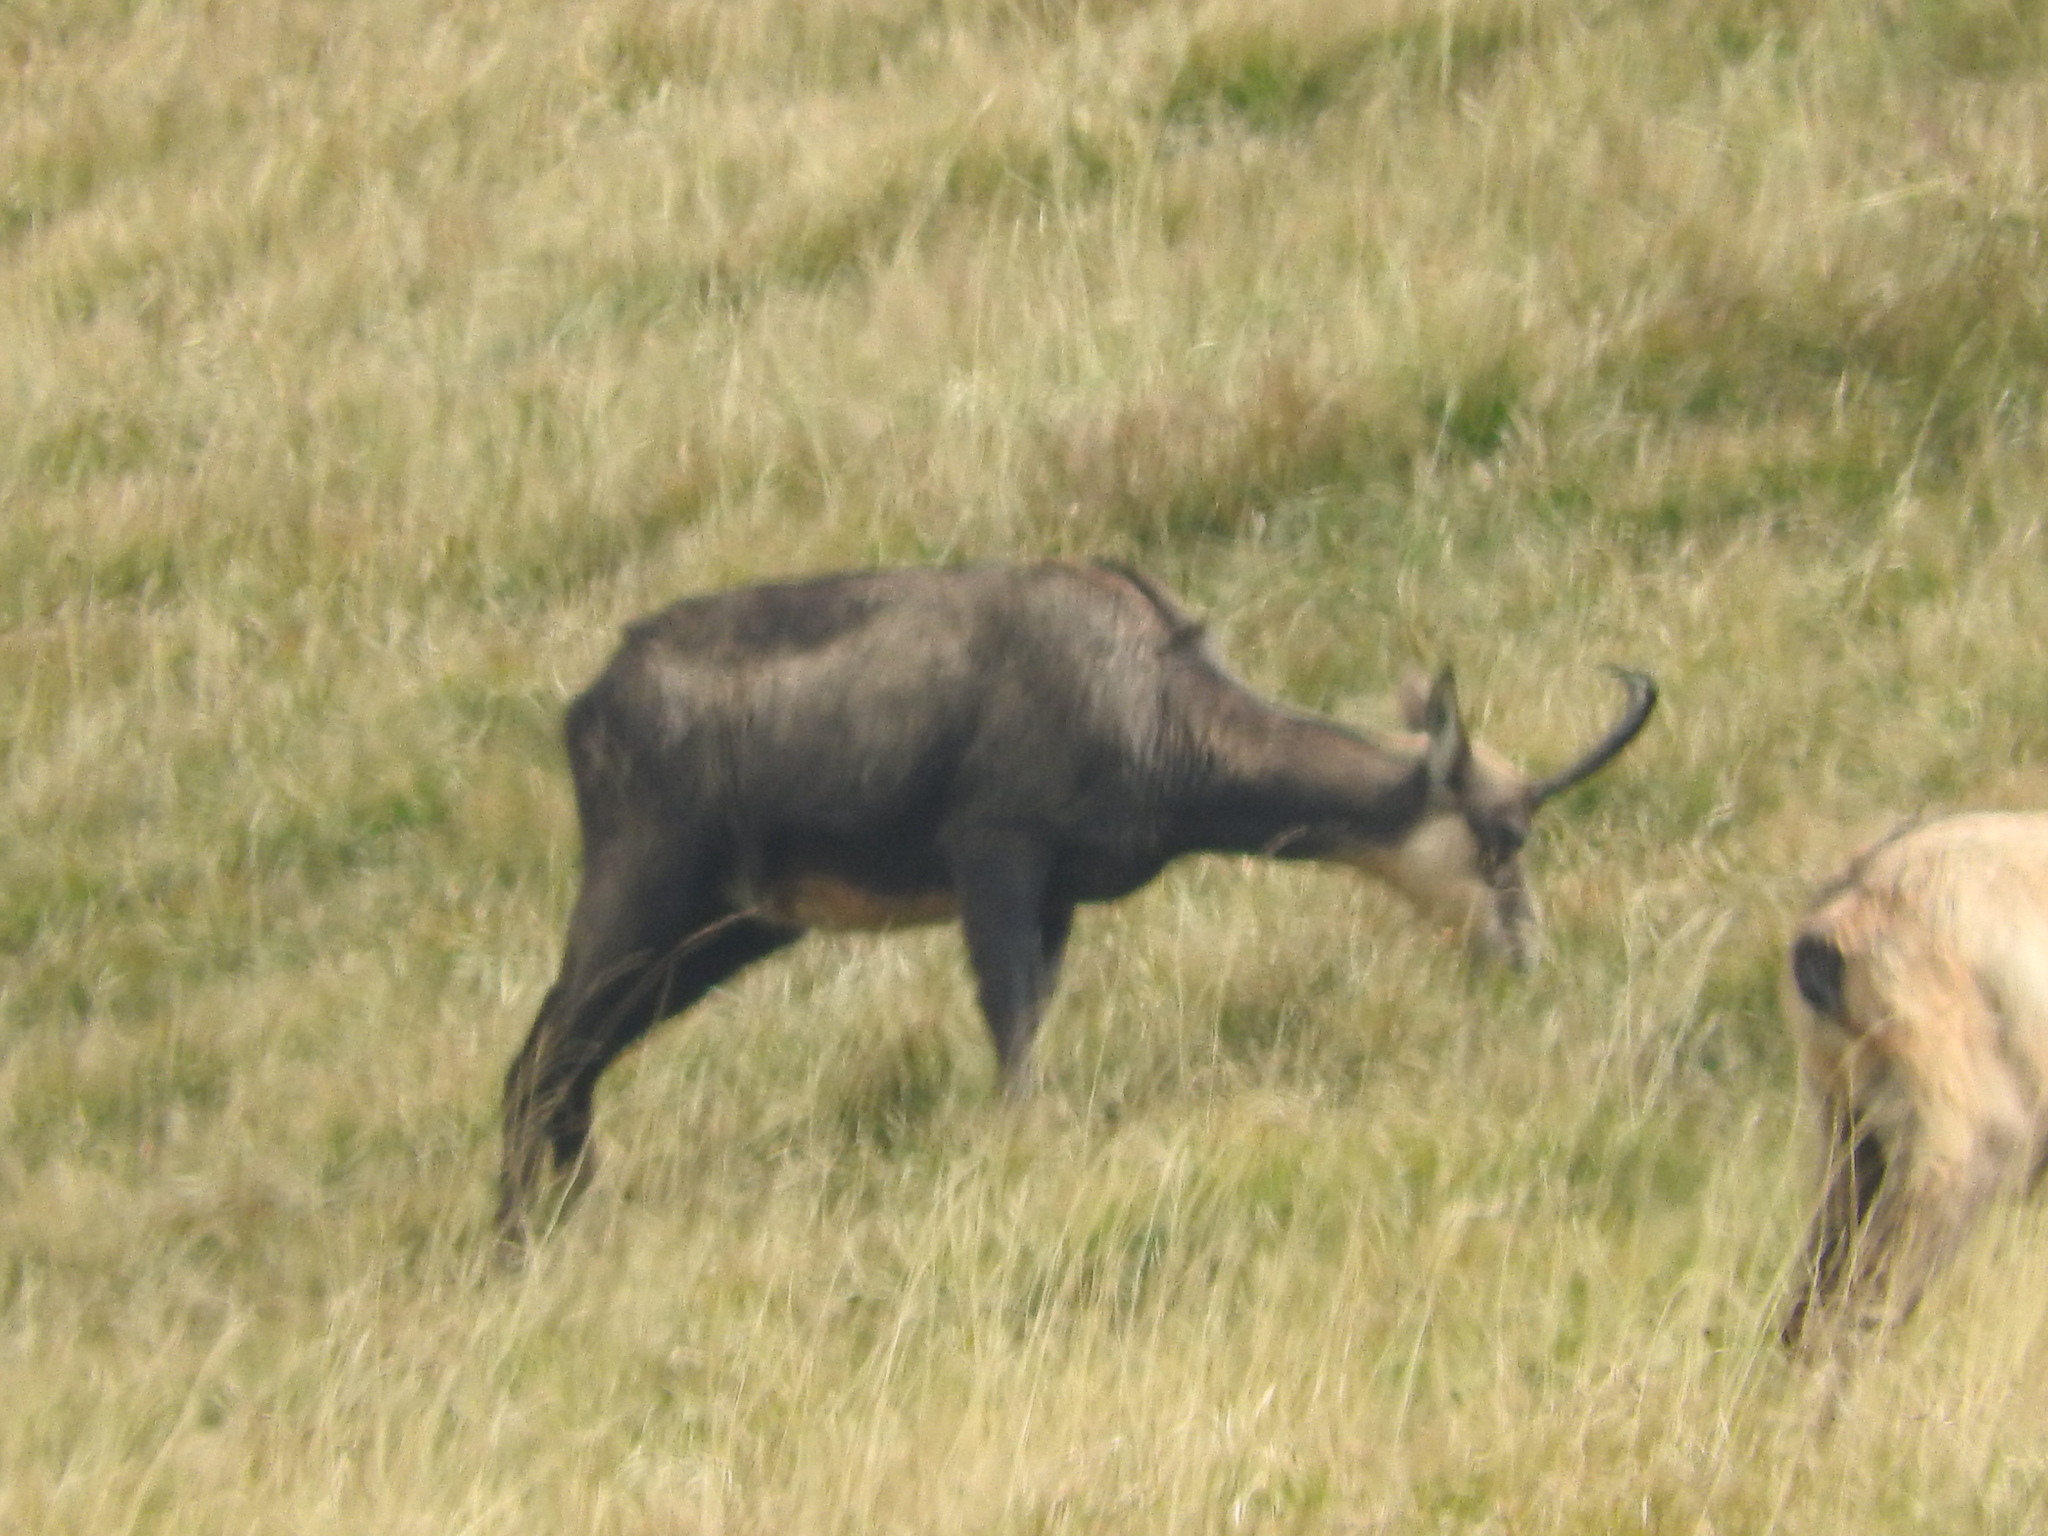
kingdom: Animalia
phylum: Chordata
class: Mammalia
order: Artiodactyla
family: Bovidae
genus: Rupicapra
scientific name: Rupicapra rupicapra
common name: Chamois
